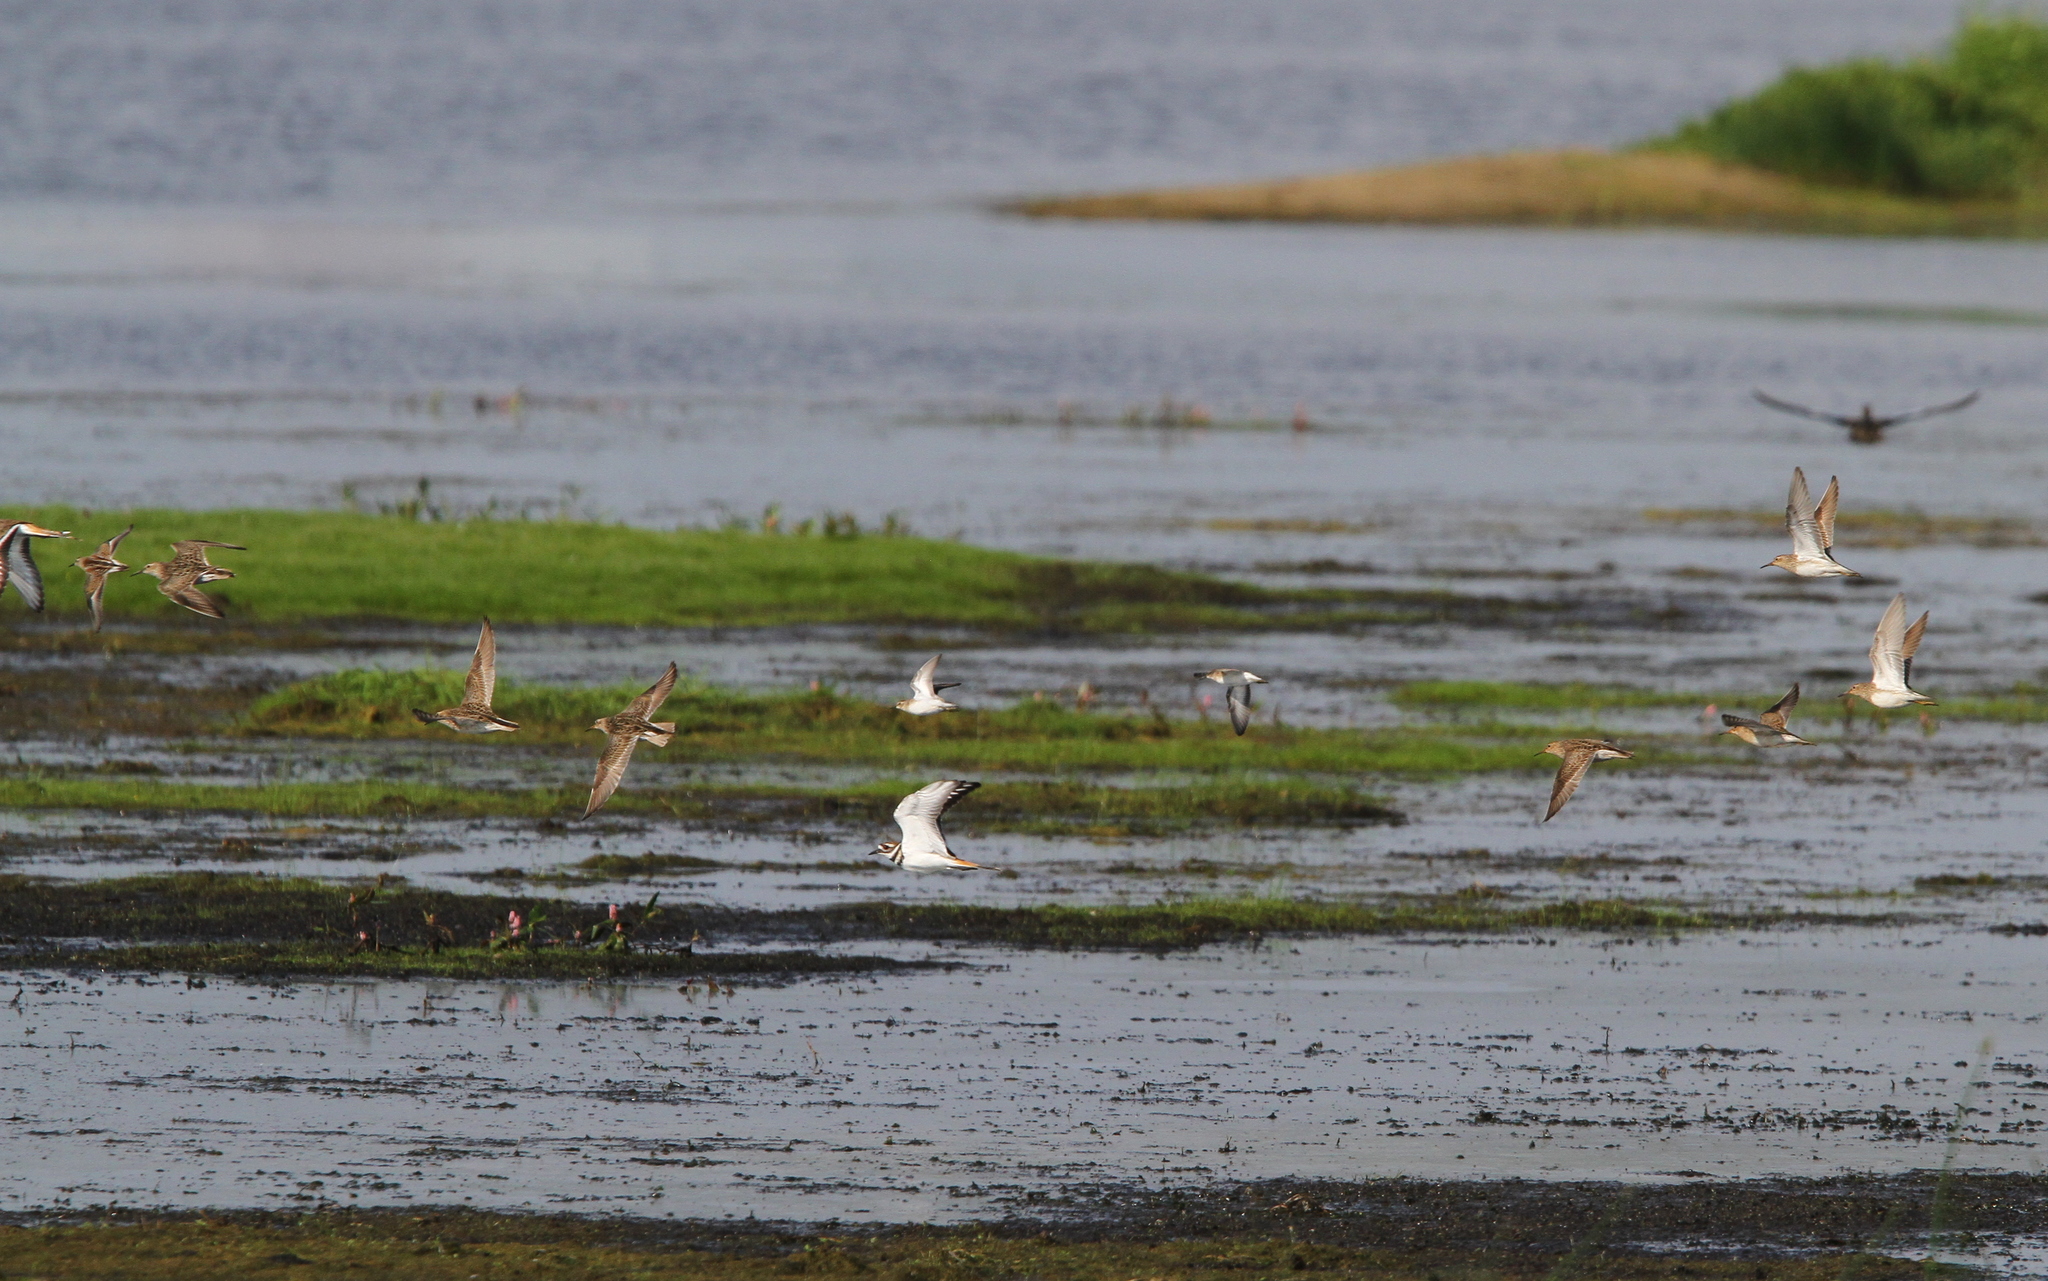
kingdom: Animalia
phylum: Chordata
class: Aves
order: Charadriiformes
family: Scolopacidae
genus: Calidris
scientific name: Calidris melanotos
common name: Pectoral sandpiper
